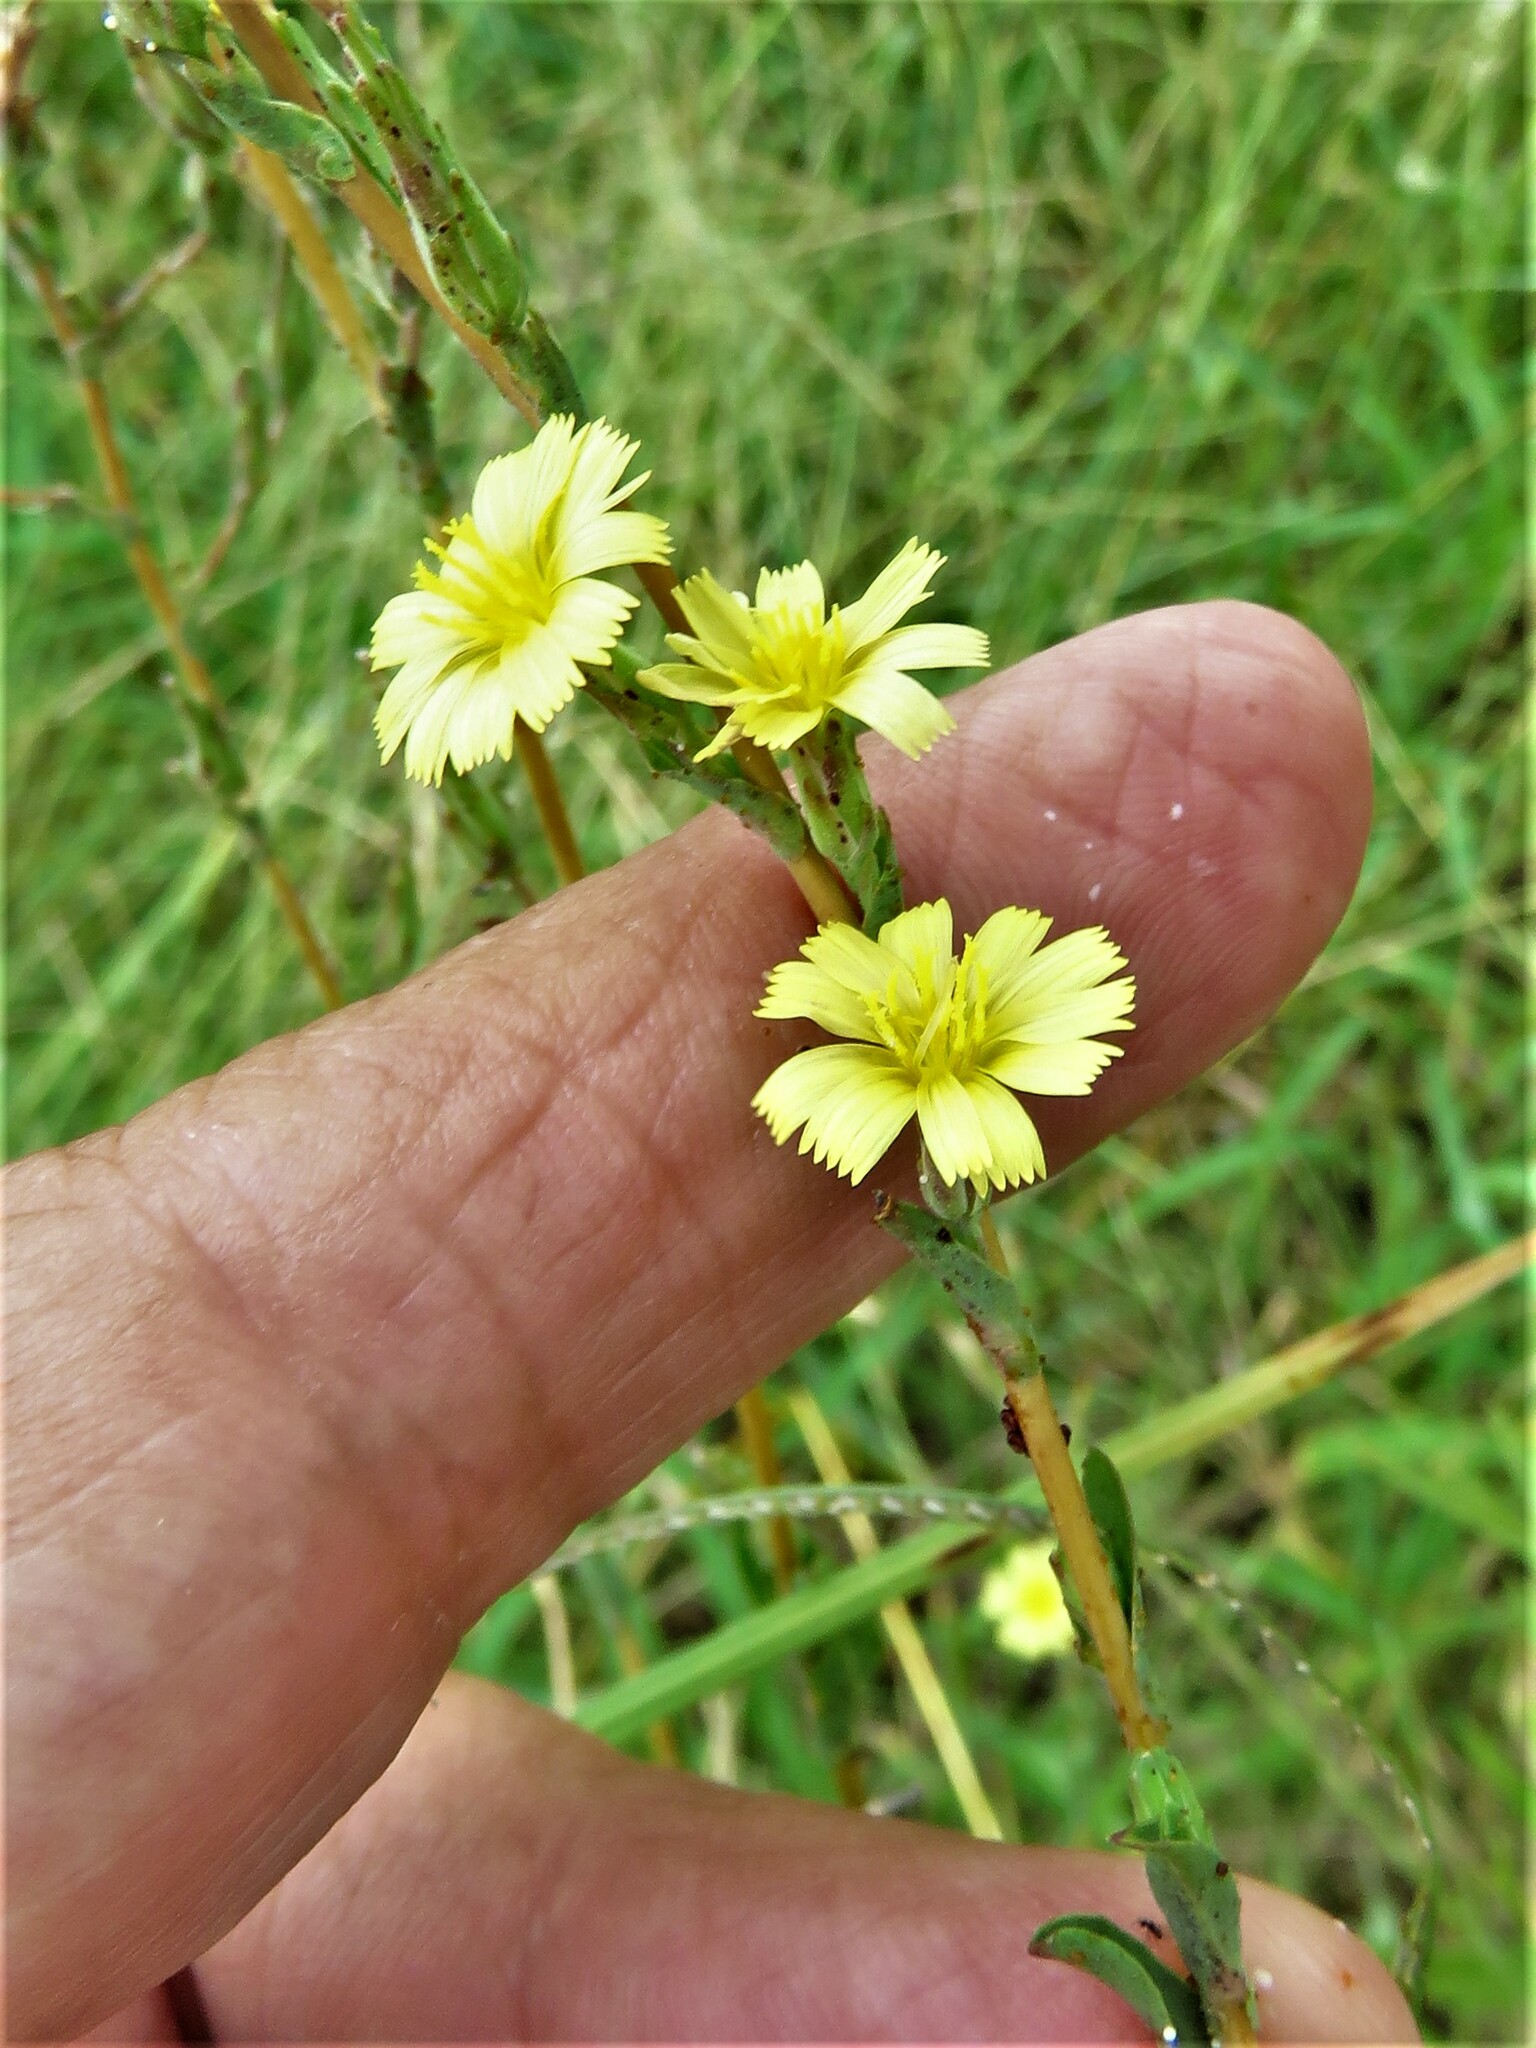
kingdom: Plantae
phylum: Tracheophyta
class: Magnoliopsida
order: Asterales
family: Asteraceae
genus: Lactuca
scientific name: Lactuca serriola
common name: Prickly lettuce
